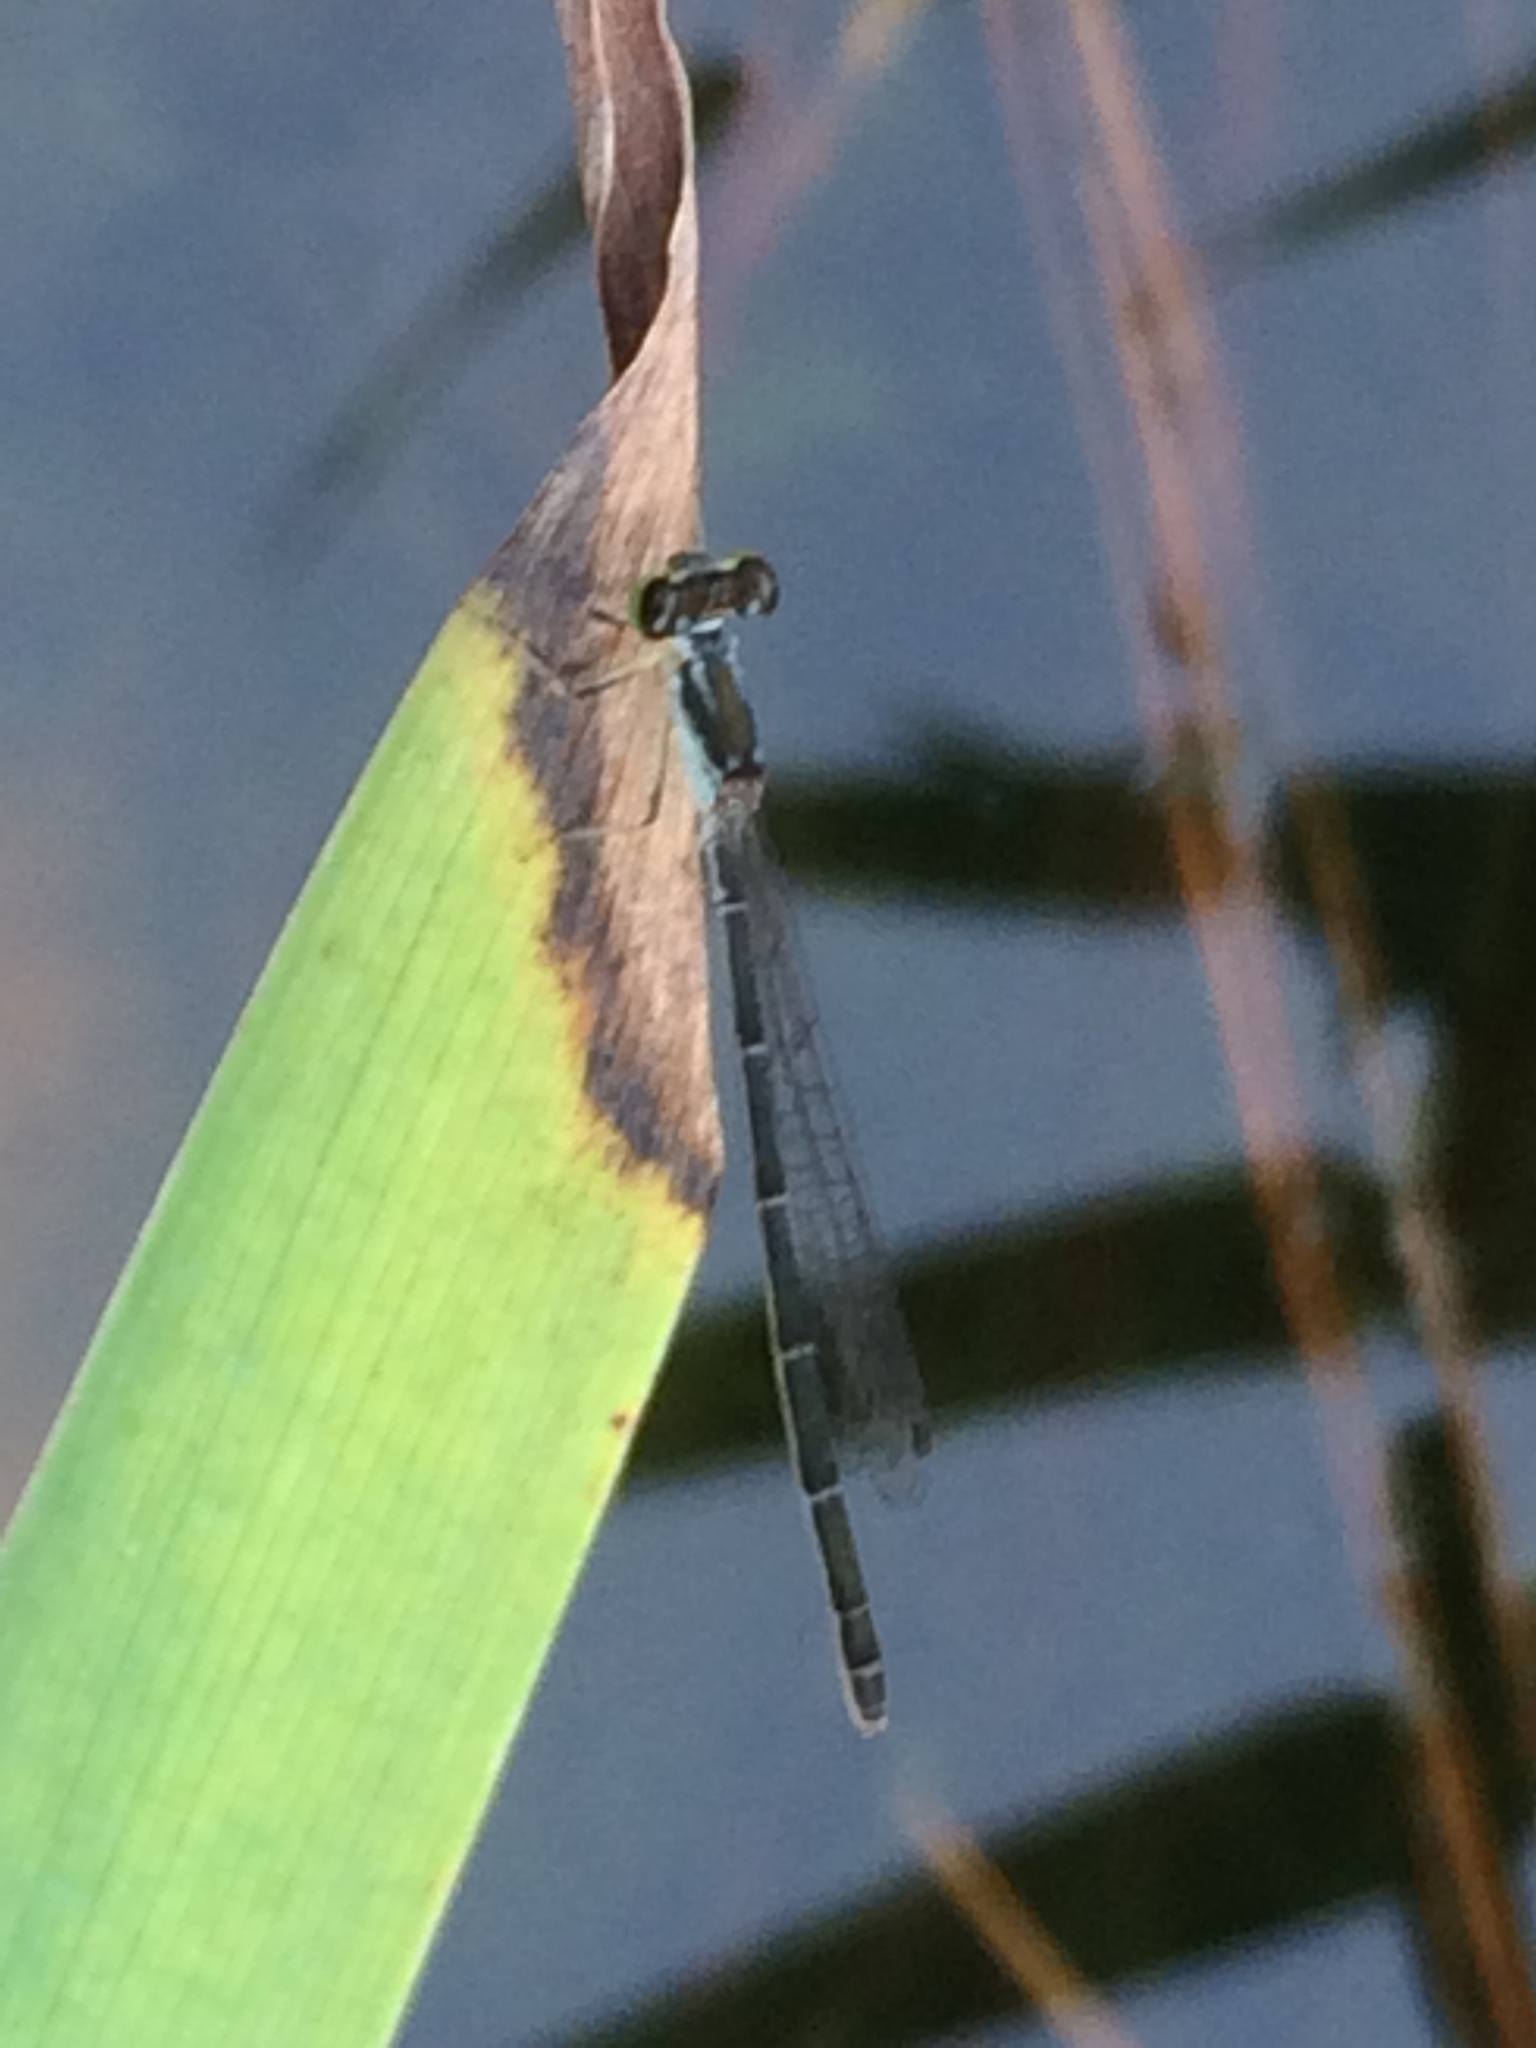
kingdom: Animalia
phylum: Arthropoda
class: Insecta
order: Odonata
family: Coenagrionidae
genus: Ischnura
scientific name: Ischnura posita
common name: Fragile forktail
